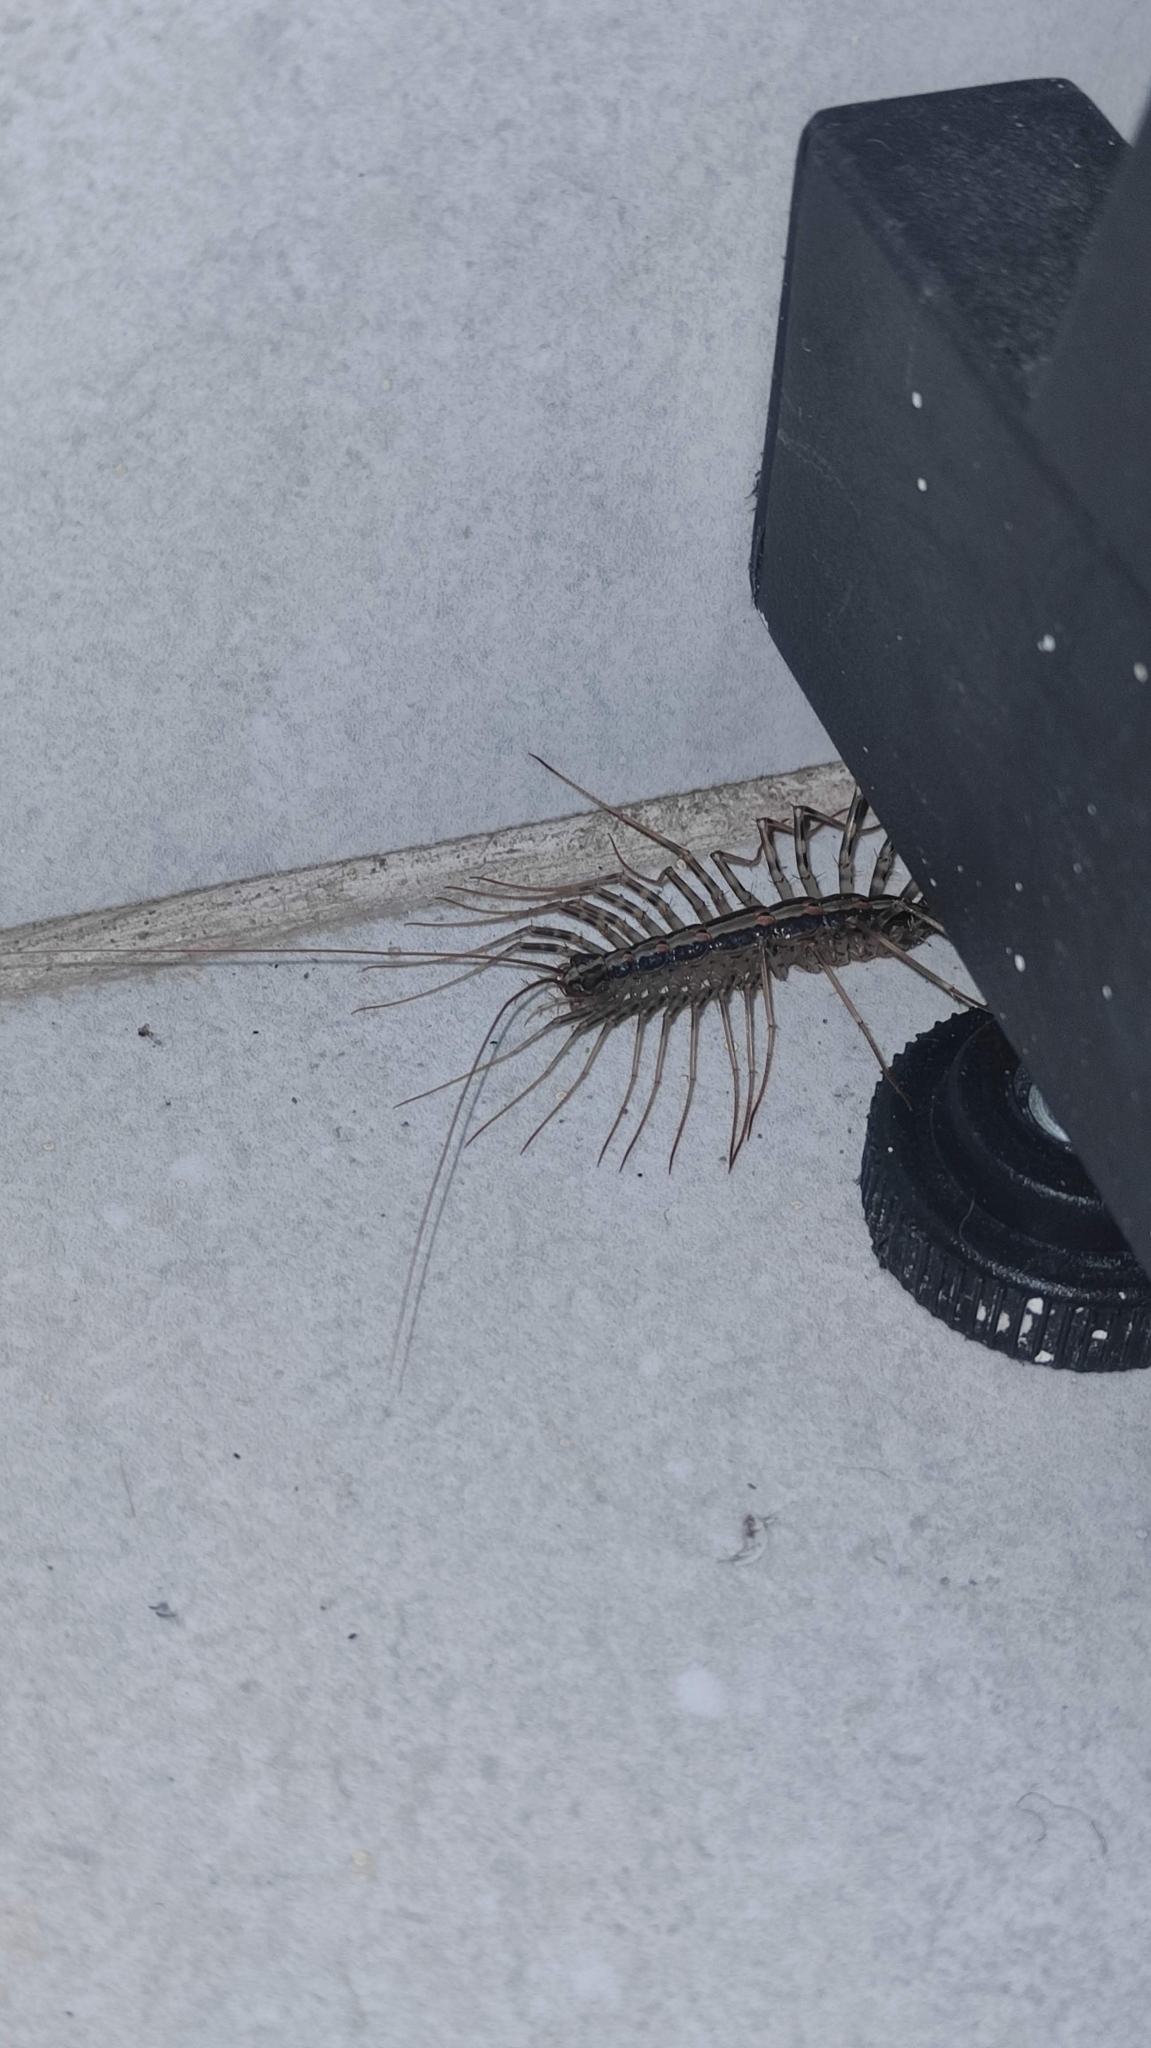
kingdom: Animalia
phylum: Arthropoda
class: Chilopoda
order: Scutigeromorpha
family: Pselliodidae
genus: Sphendononema
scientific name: Sphendononema guildingii
